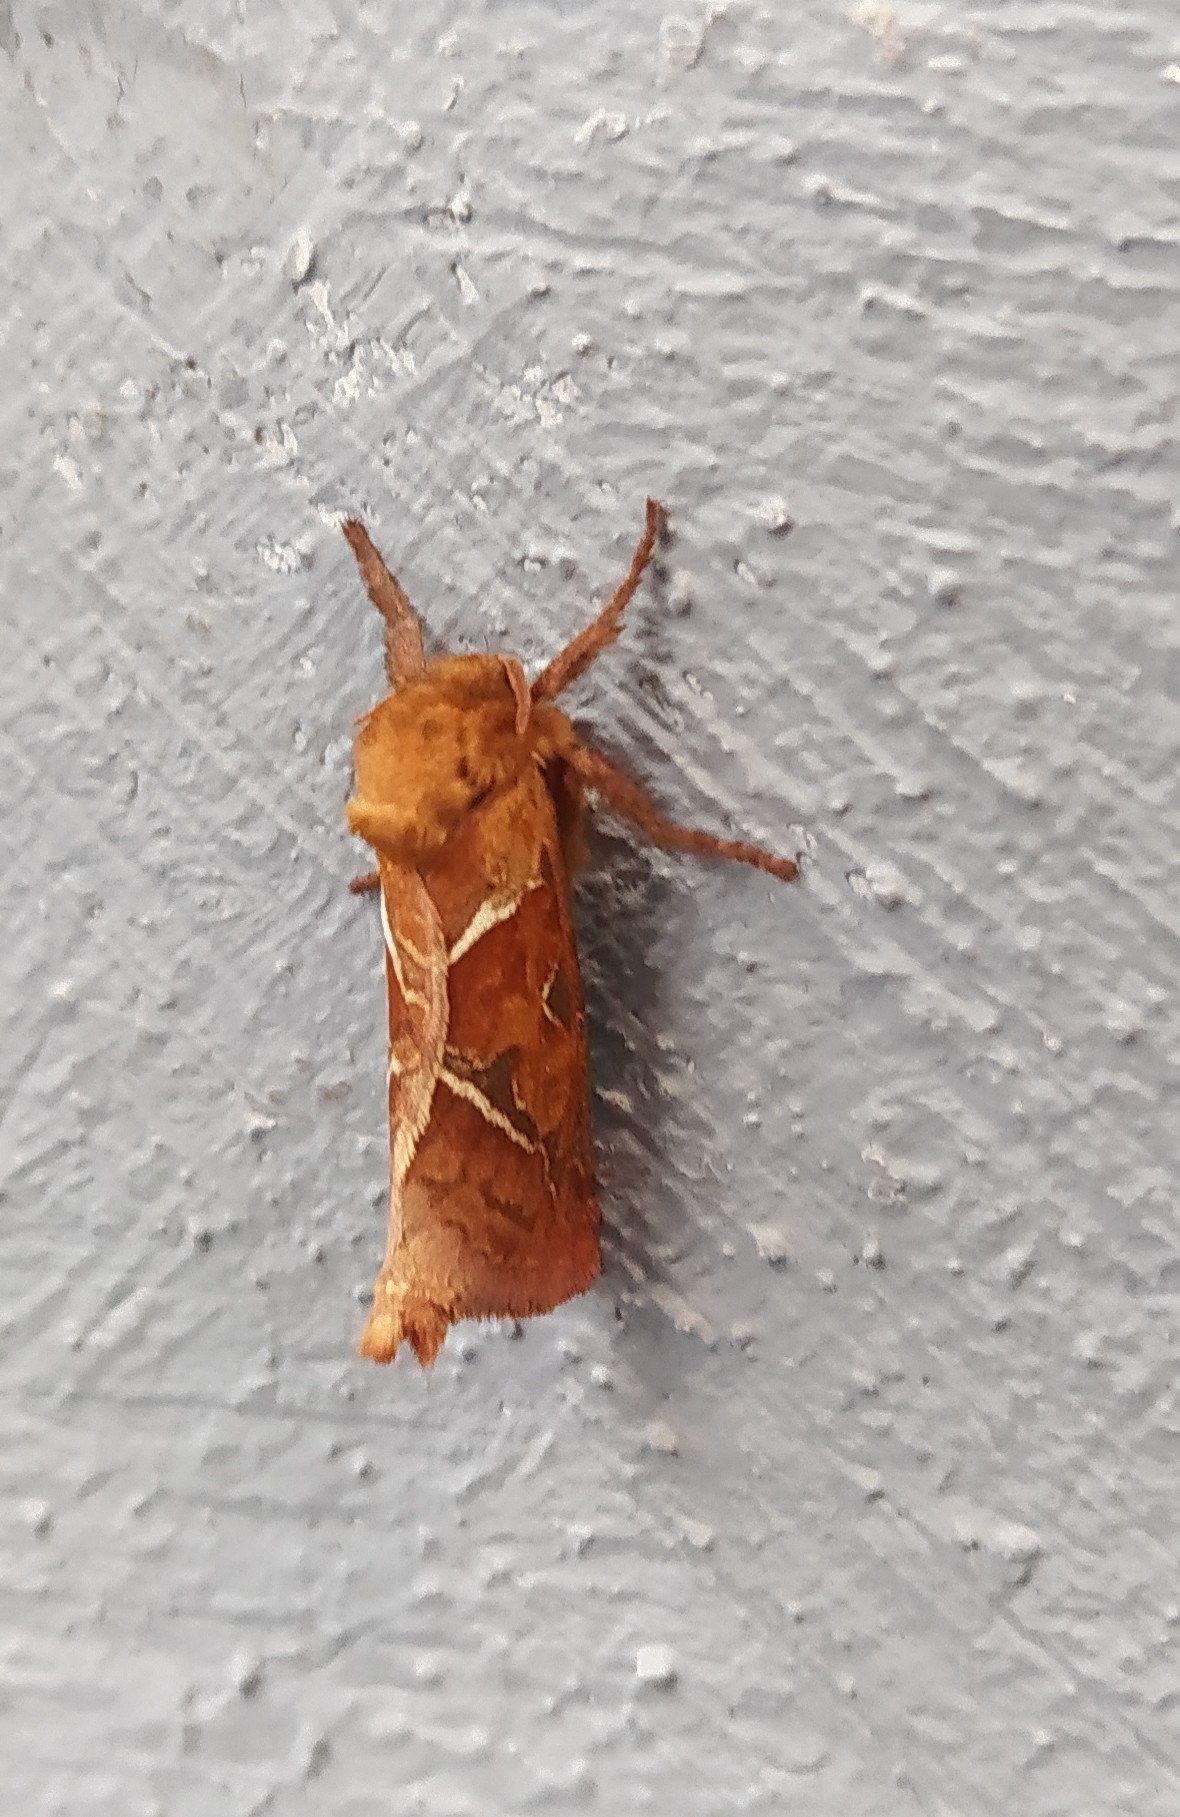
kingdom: Animalia
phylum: Arthropoda
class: Insecta
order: Lepidoptera
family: Hepialidae
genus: Triodia
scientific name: Triodia sylvina
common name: Orange swift
